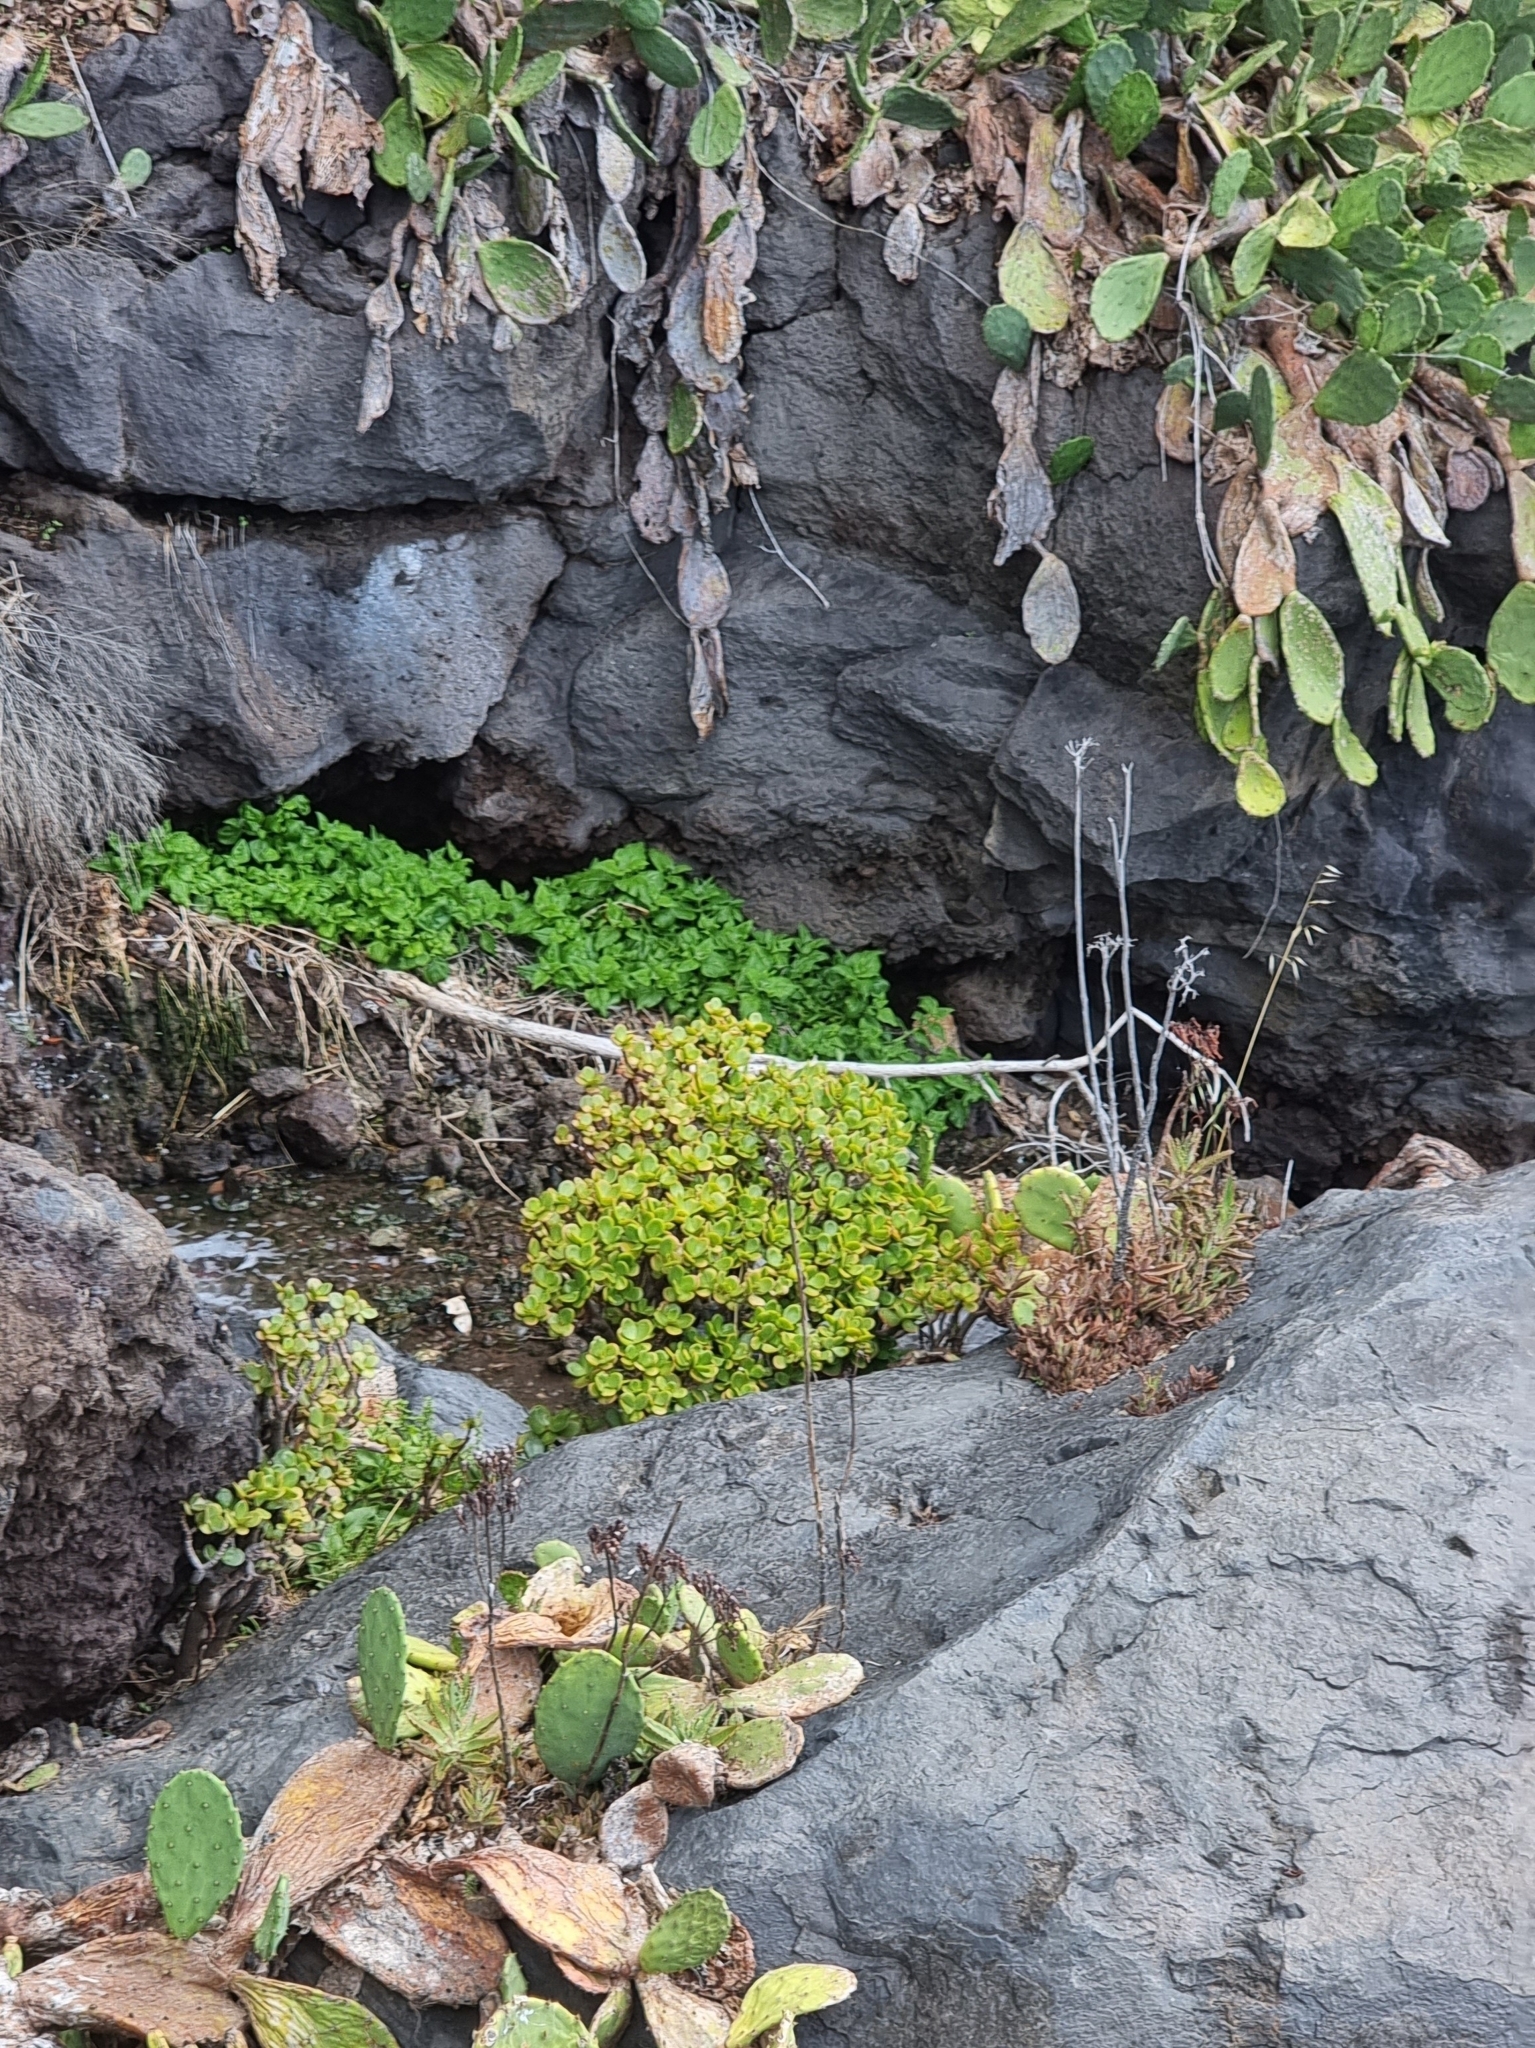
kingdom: Plantae
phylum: Tracheophyta
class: Magnoliopsida
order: Saxifragales
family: Crassulaceae
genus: Crassula
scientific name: Crassula ovata
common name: Jade plant
